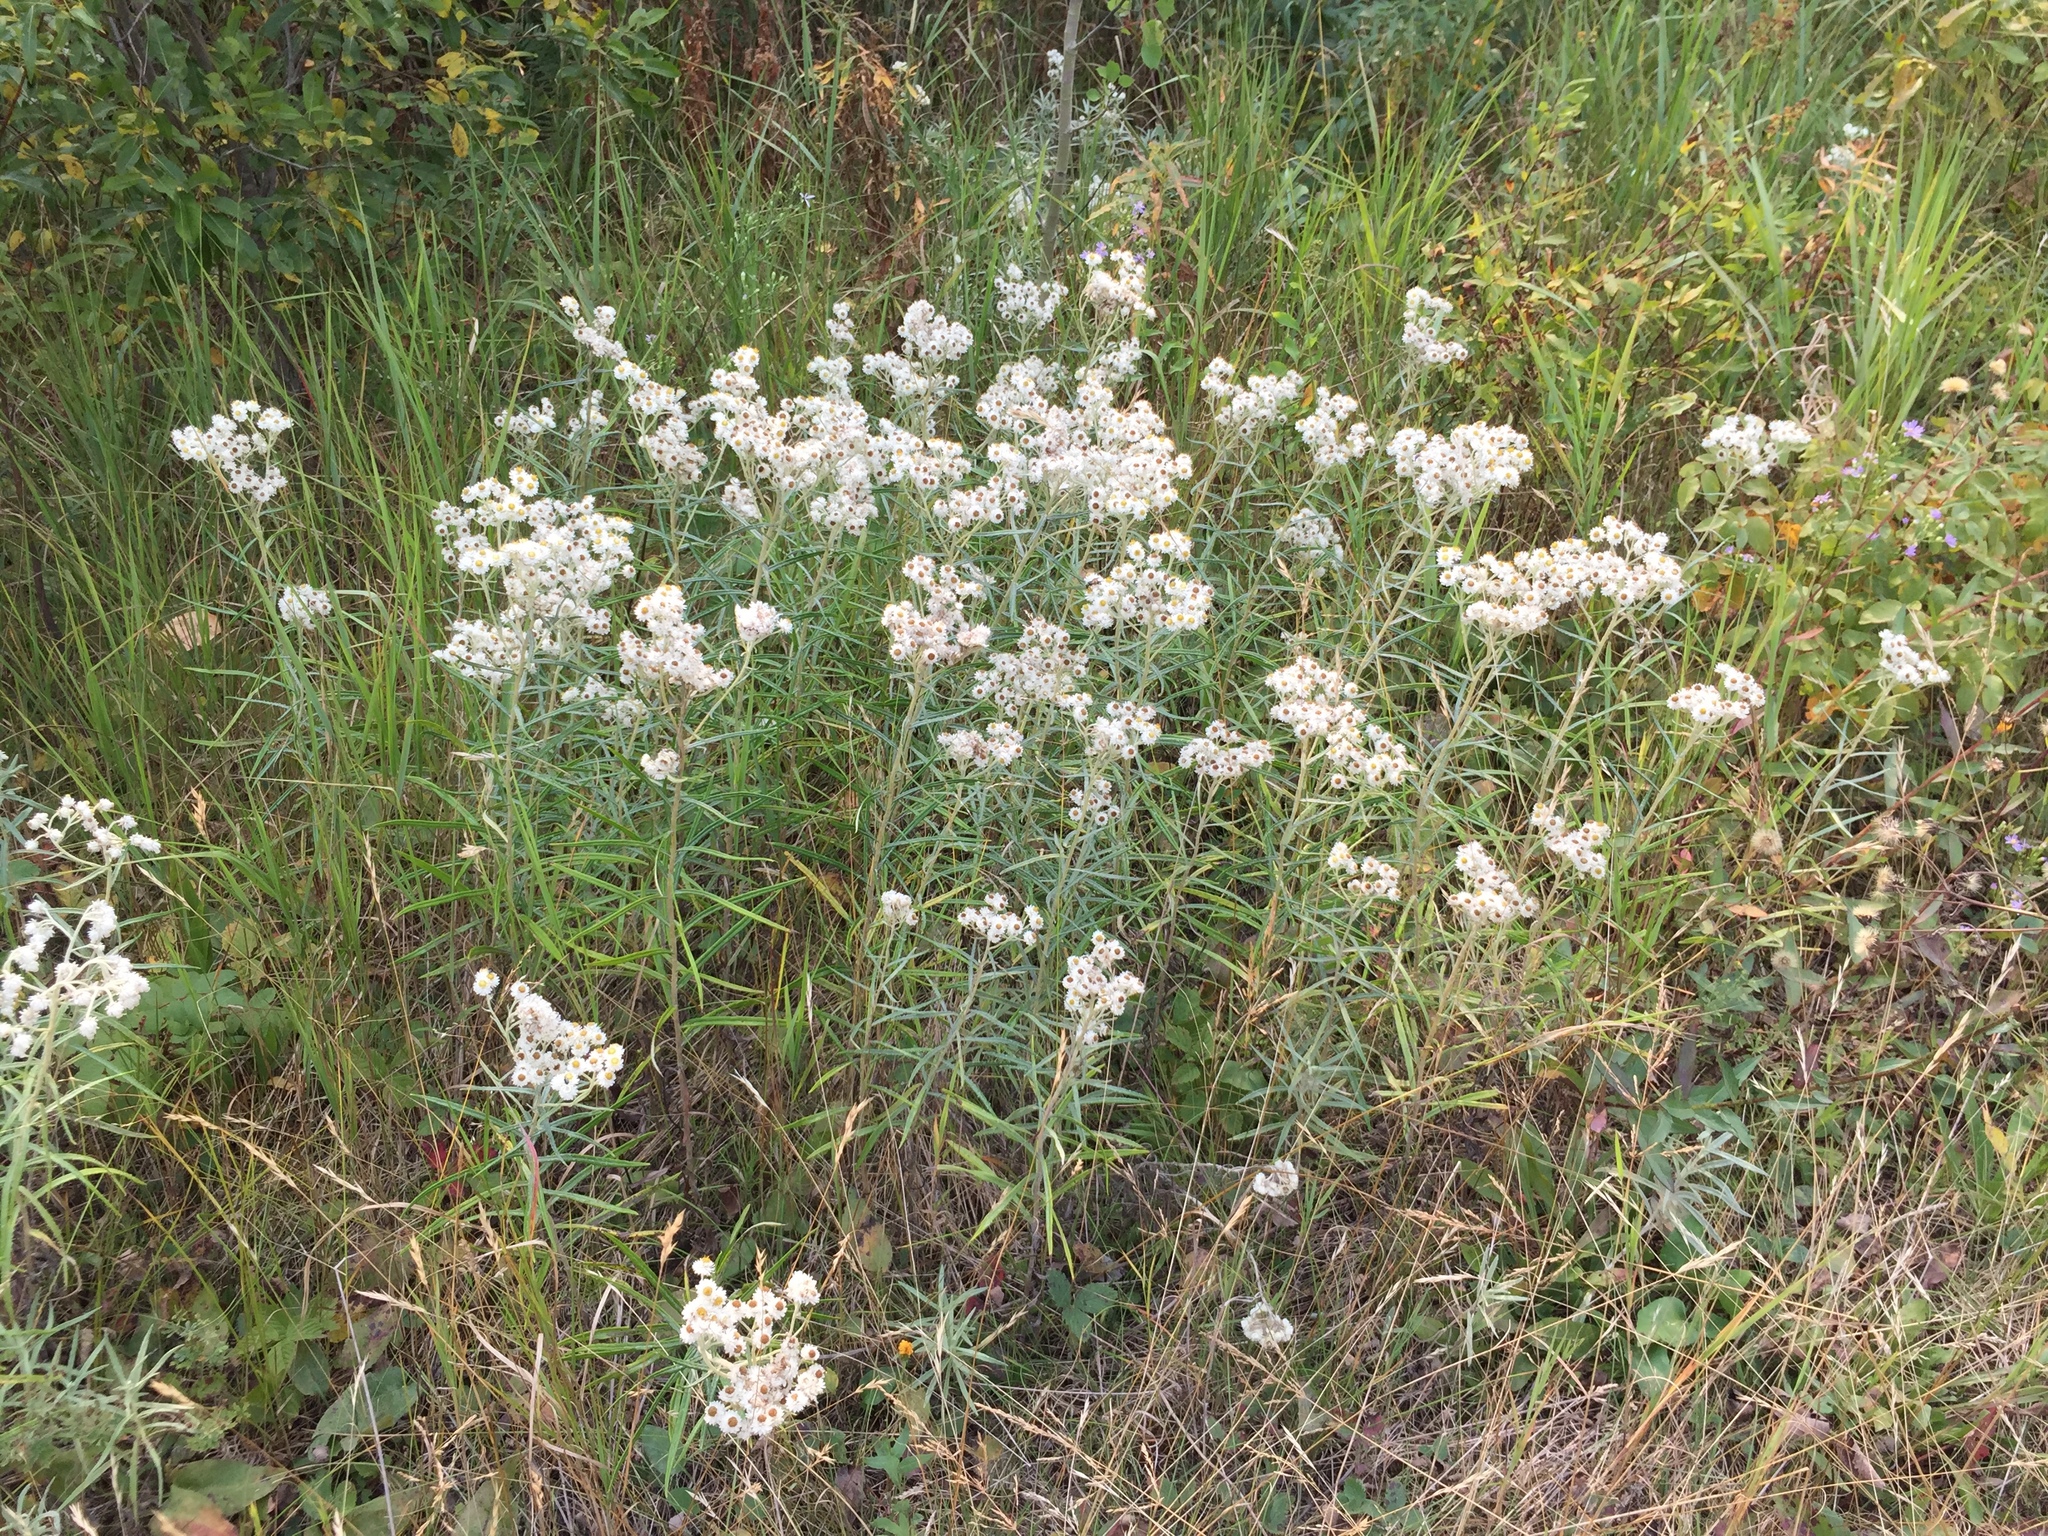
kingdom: Plantae
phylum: Tracheophyta
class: Magnoliopsida
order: Asterales
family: Asteraceae
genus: Anaphalis
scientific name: Anaphalis margaritacea
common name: Pearly everlasting
